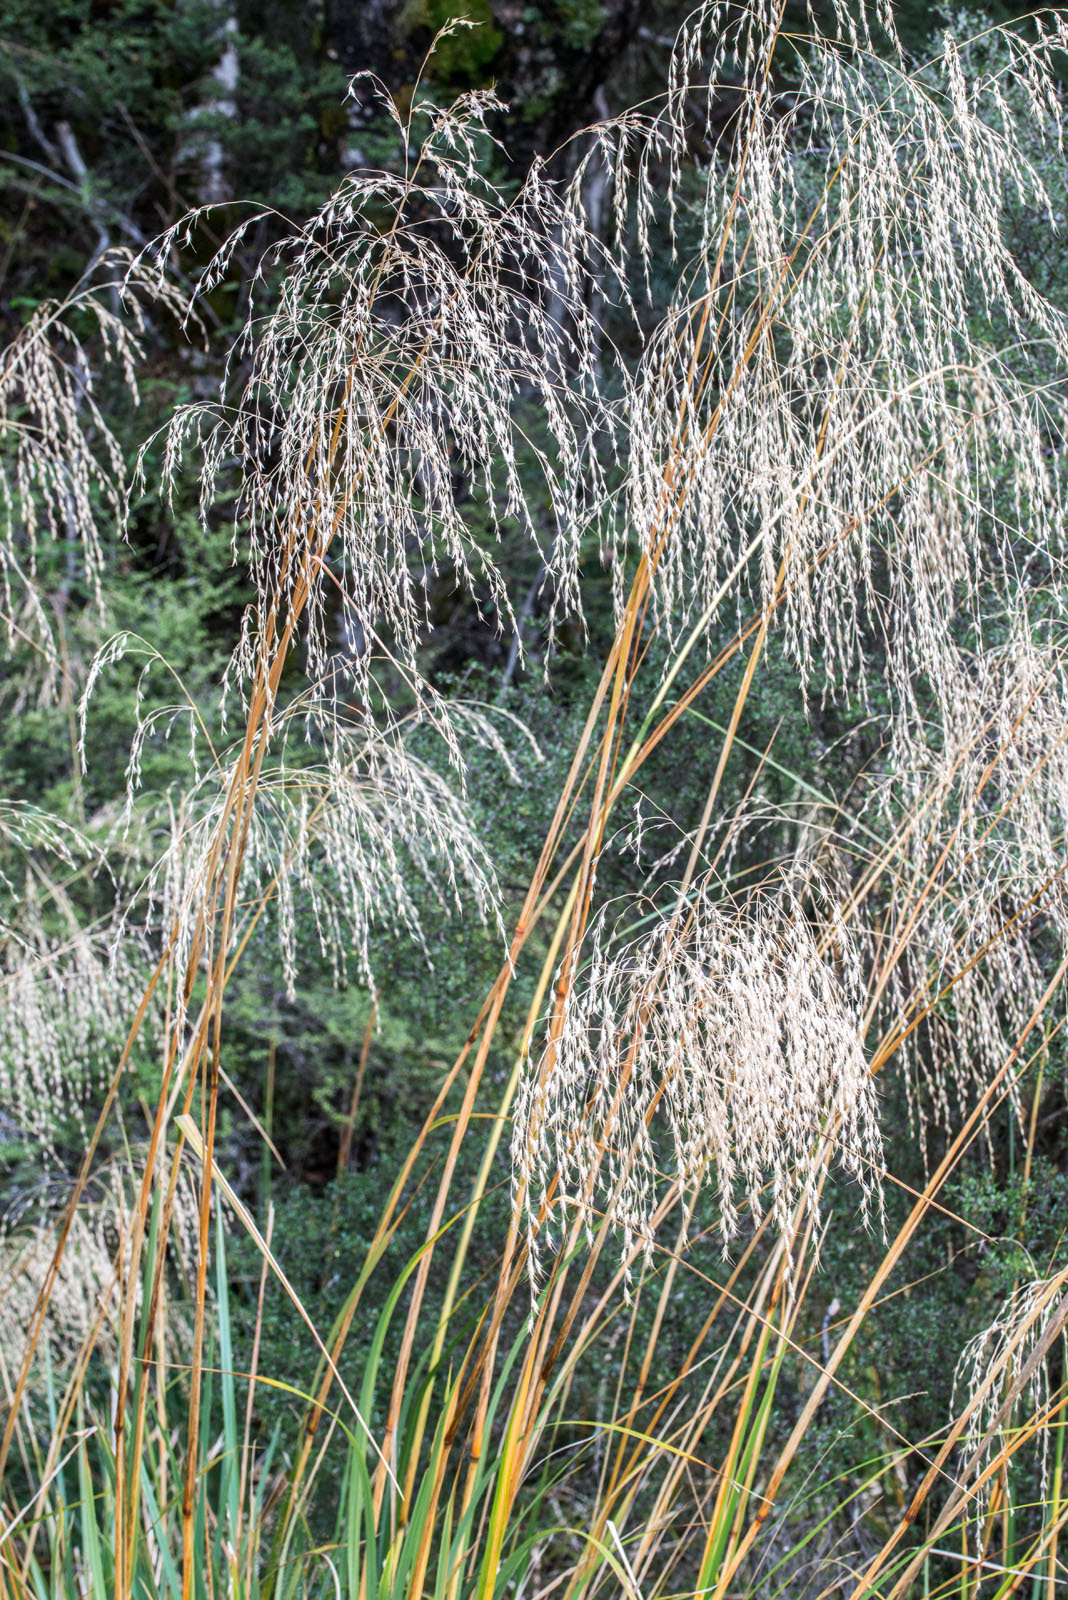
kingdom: Plantae
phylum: Tracheophyta
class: Liliopsida
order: Poales
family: Poaceae
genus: Chionochloa
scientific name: Chionochloa conspicua
